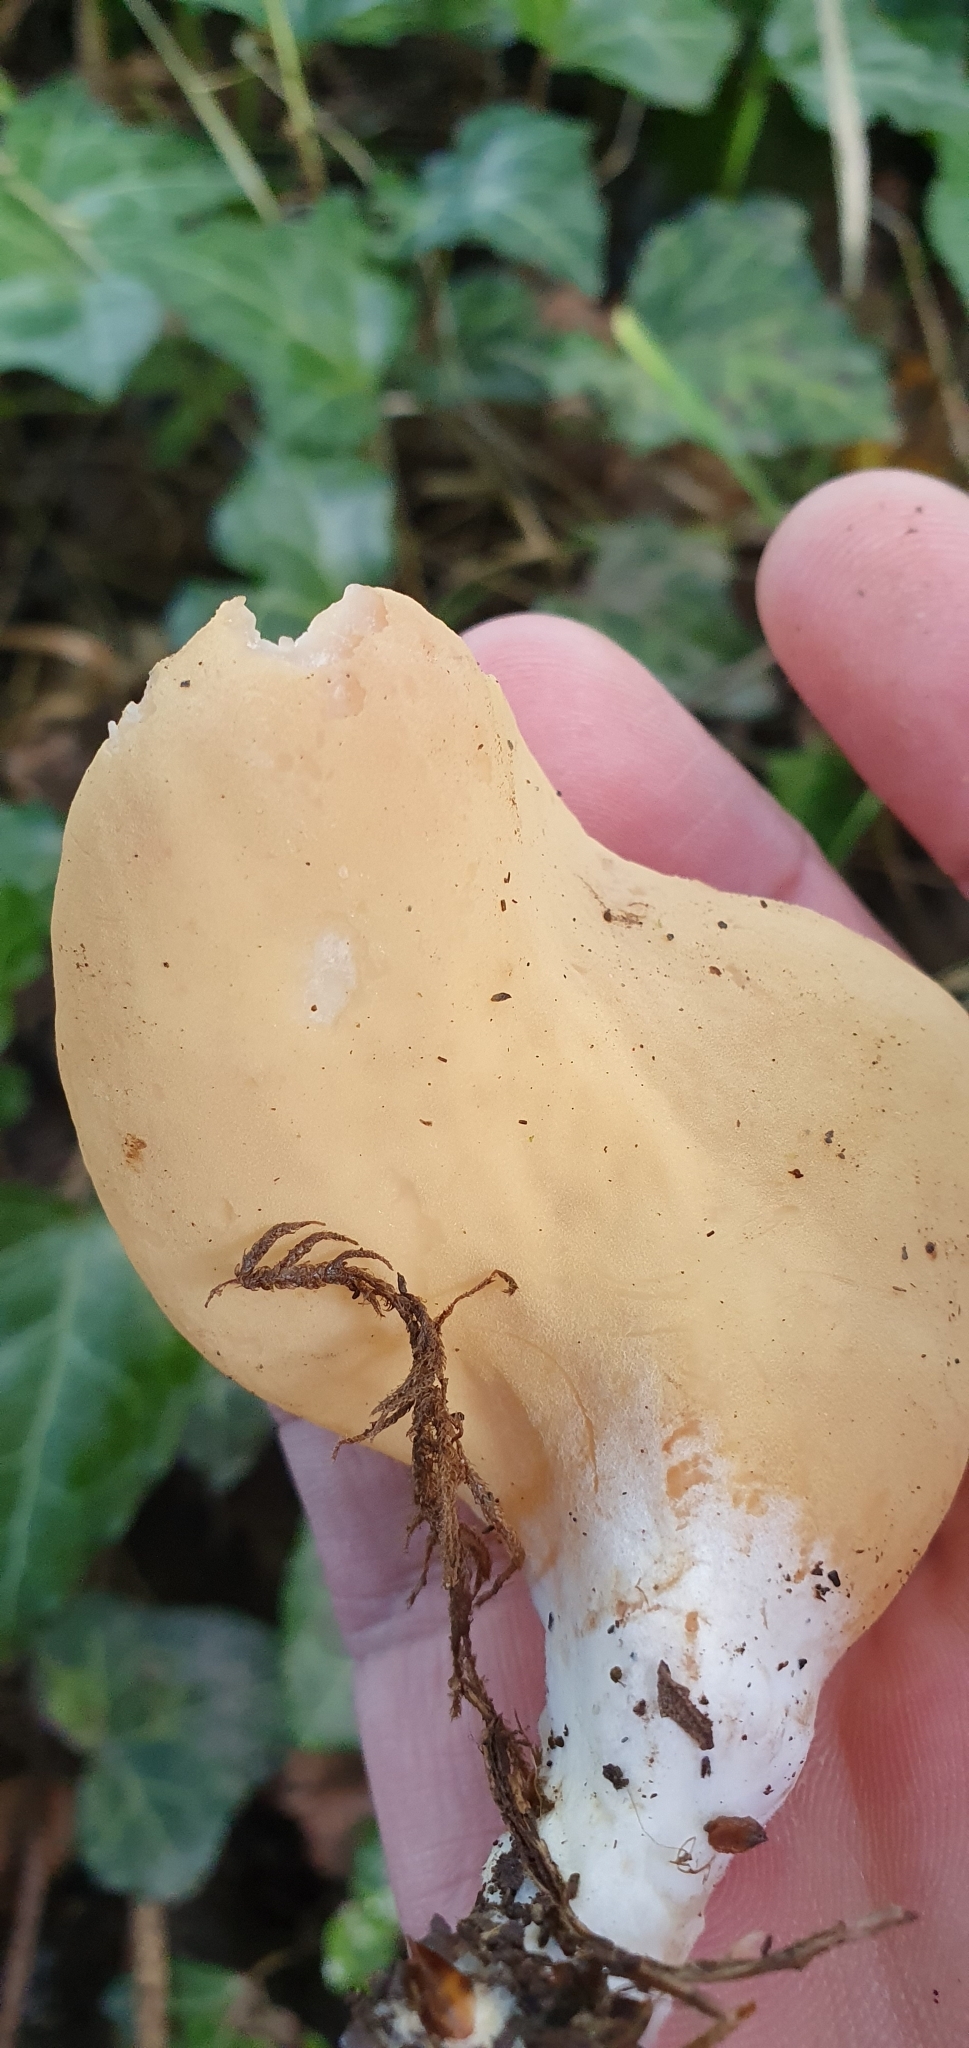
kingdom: Fungi
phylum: Ascomycota
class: Pezizomycetes
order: Pezizales
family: Otideaceae
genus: Otidea
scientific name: Otidea onotica
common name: Hare's ear
